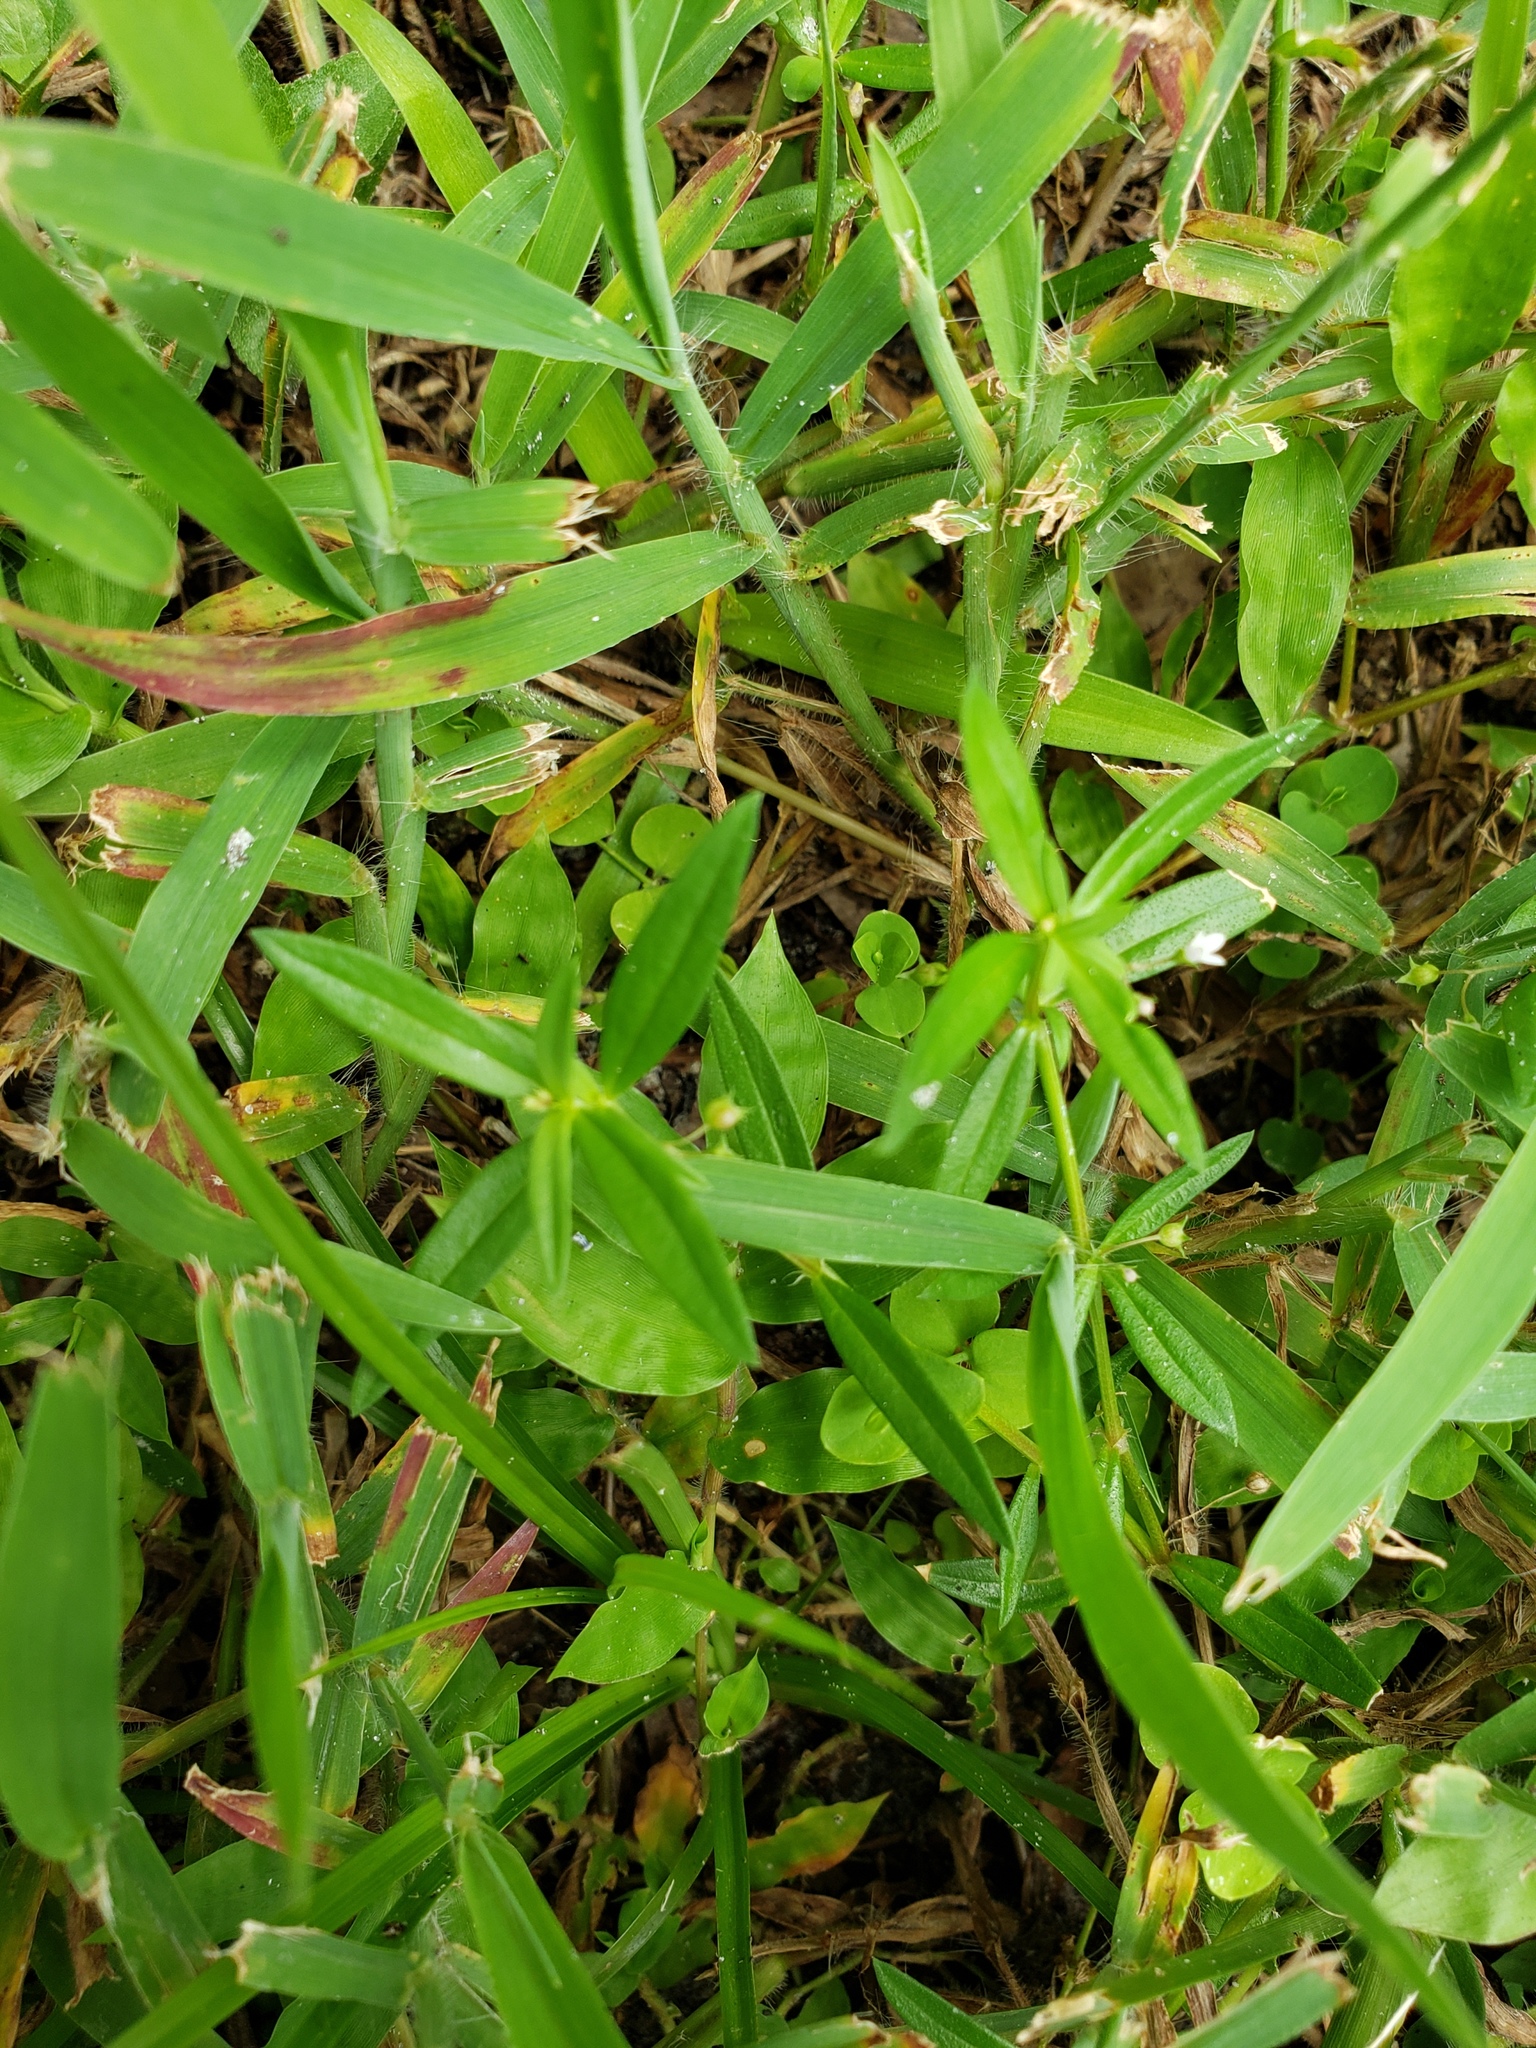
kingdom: Plantae
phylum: Tracheophyta
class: Magnoliopsida
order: Gentianales
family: Rubiaceae
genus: Oldenlandia
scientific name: Oldenlandia corymbosa
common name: Flat-top mille graines
